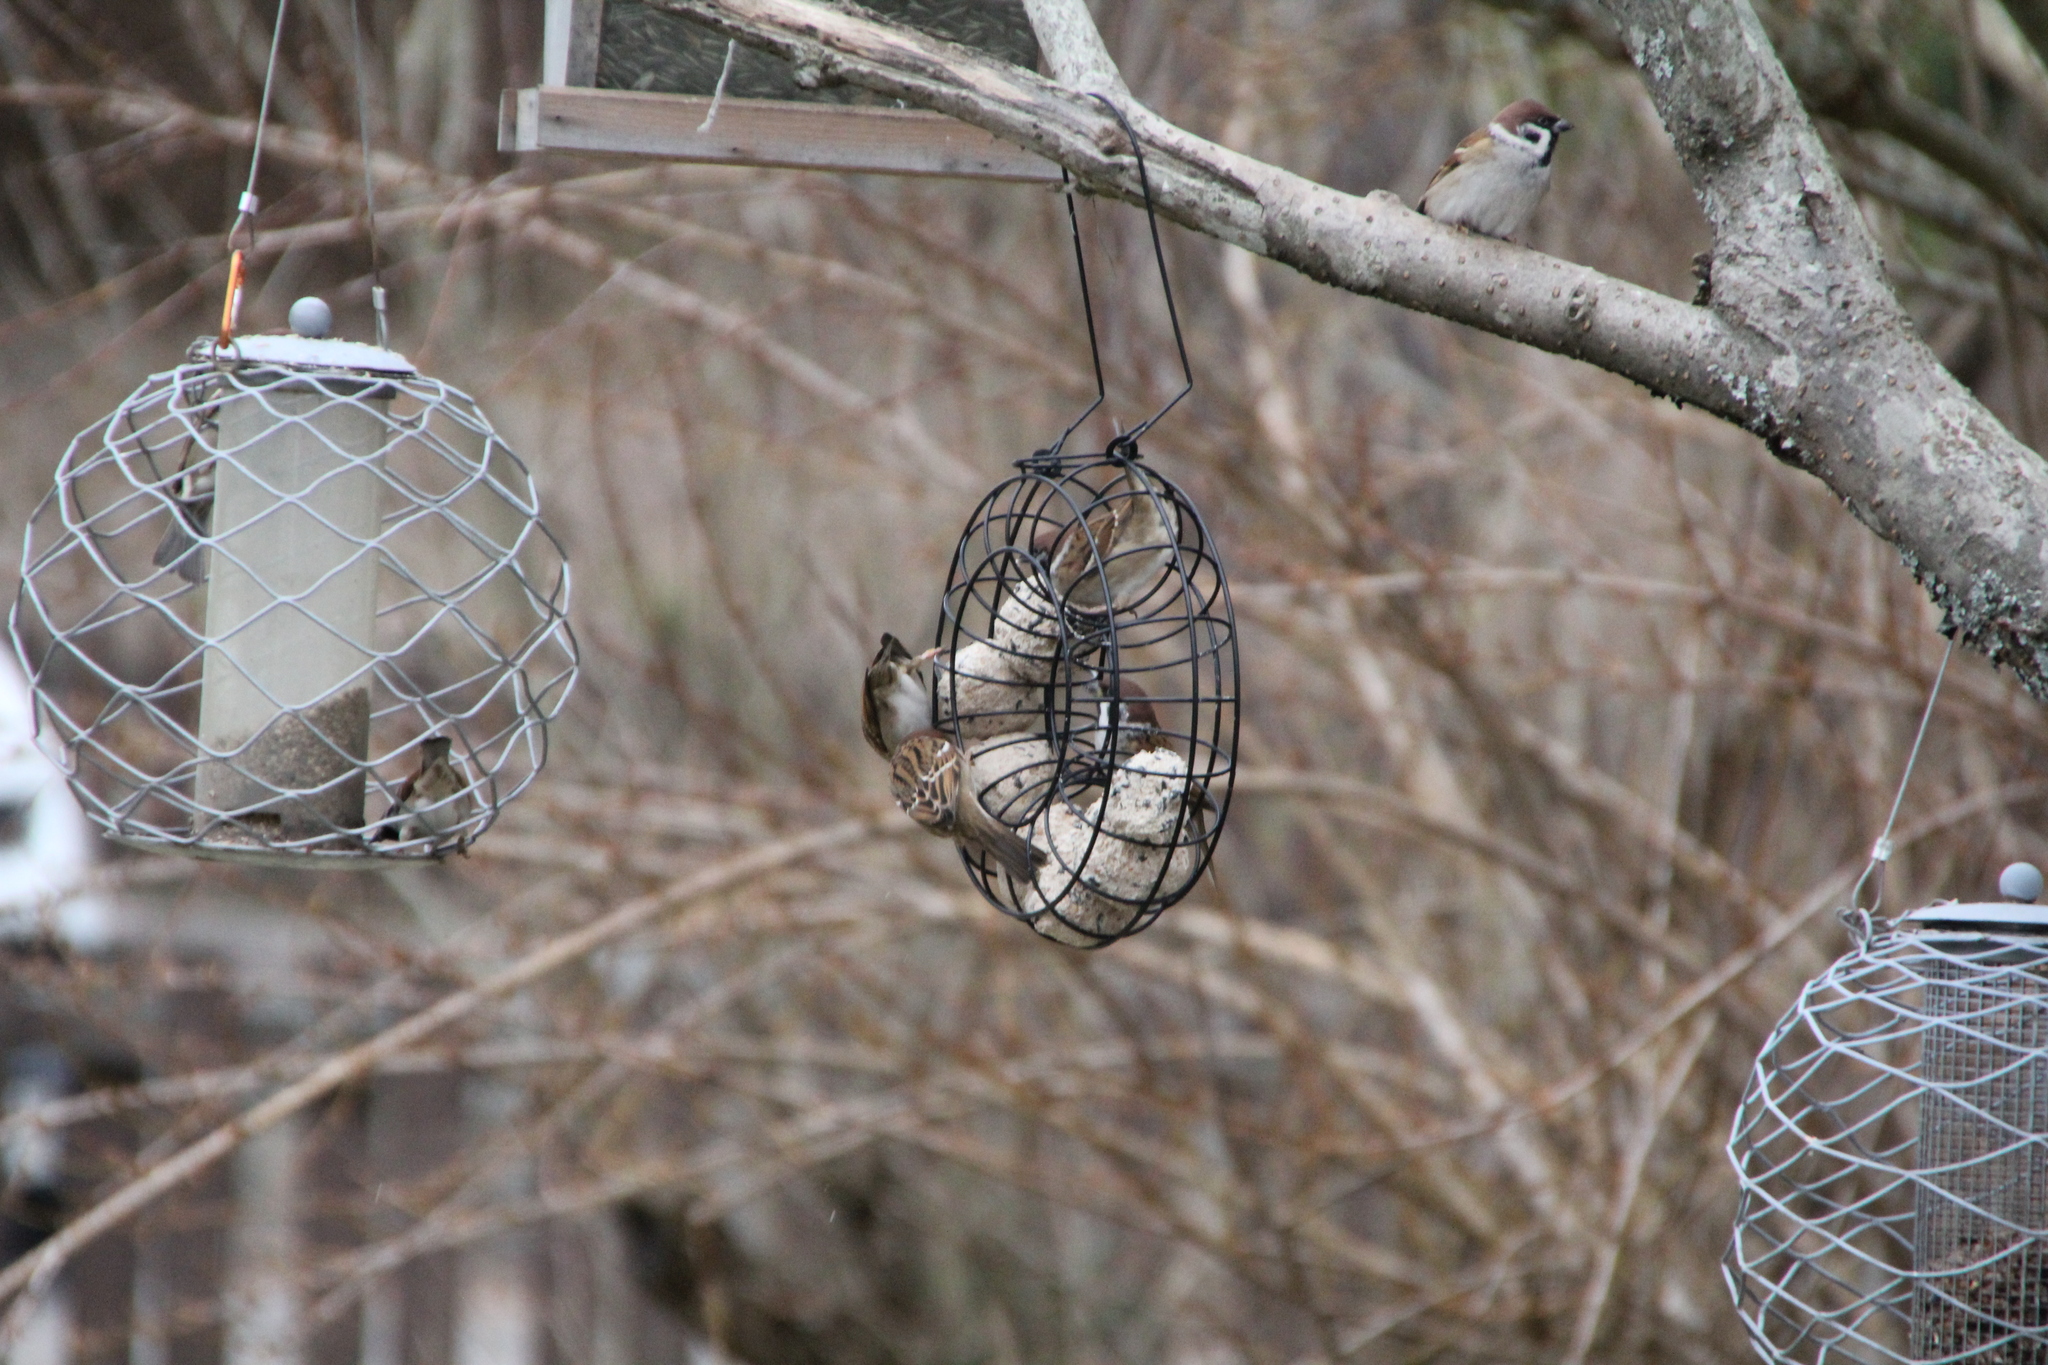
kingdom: Animalia
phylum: Chordata
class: Aves
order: Passeriformes
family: Passeridae
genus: Passer
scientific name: Passer montanus
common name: Eurasian tree sparrow
